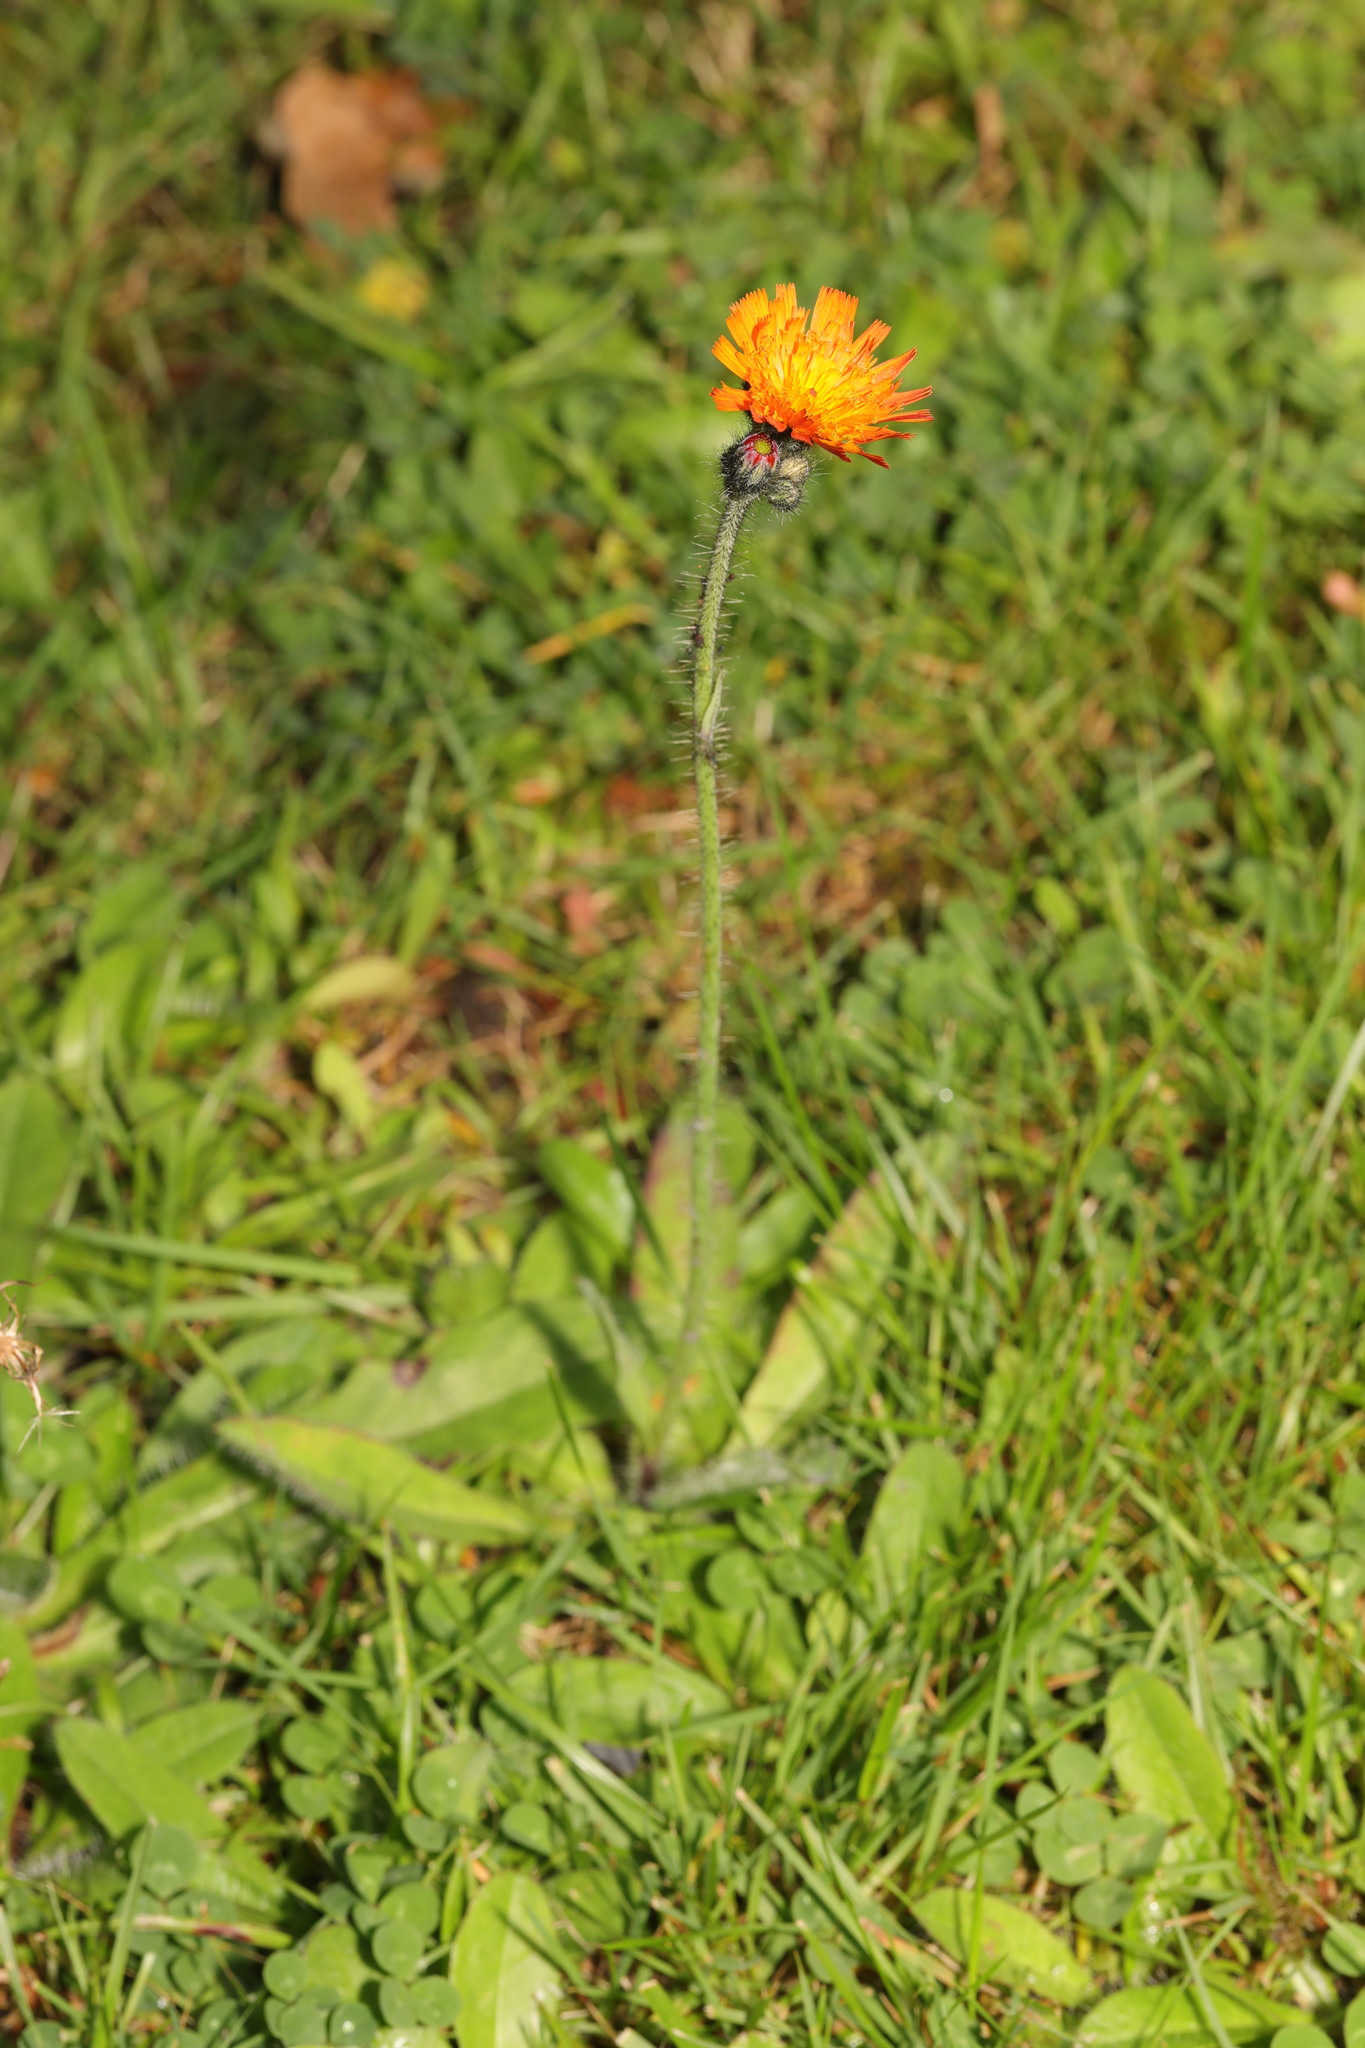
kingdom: Plantae
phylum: Tracheophyta
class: Magnoliopsida
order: Asterales
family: Asteraceae
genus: Pilosella
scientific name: Pilosella aurantiaca
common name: Fox-and-cubs
